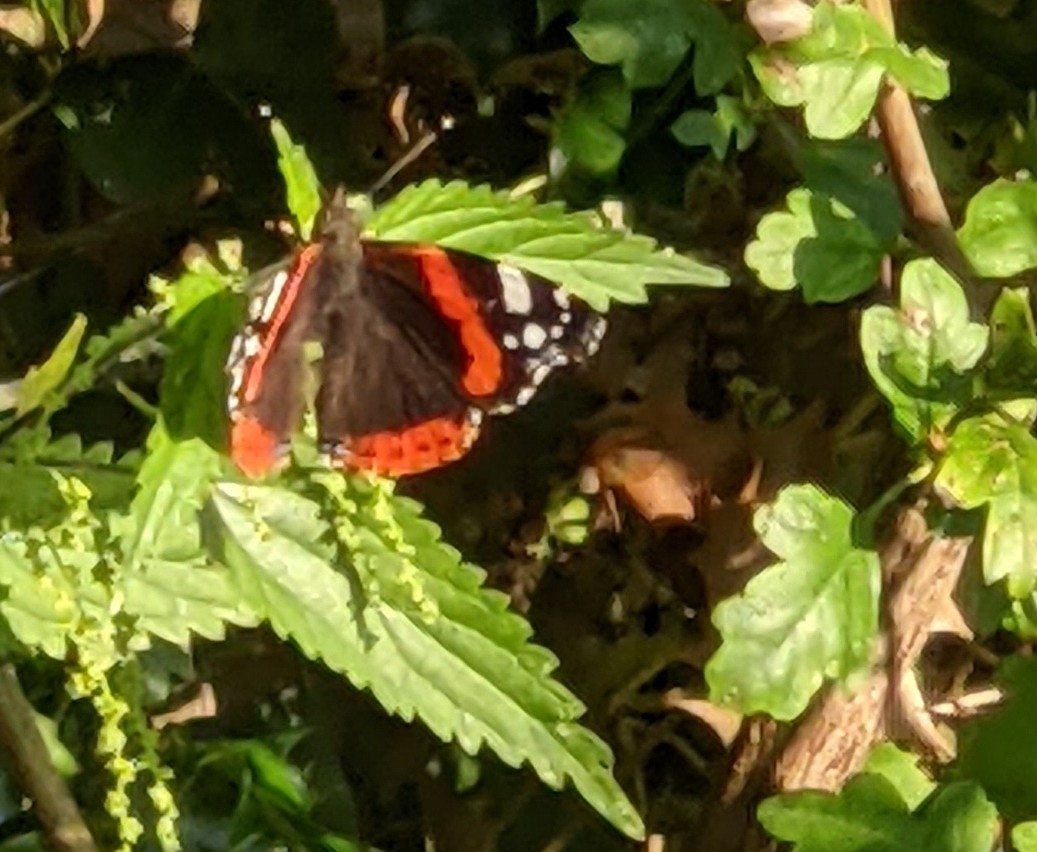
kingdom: Animalia
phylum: Arthropoda
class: Insecta
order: Lepidoptera
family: Nymphalidae
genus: Vanessa
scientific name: Vanessa atalanta
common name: Red admiral
